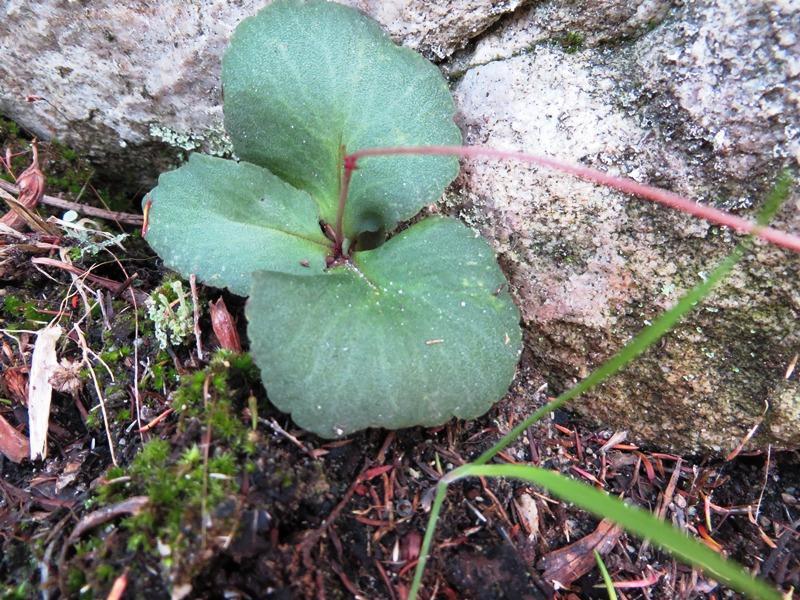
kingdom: Plantae
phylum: Tracheophyta
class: Magnoliopsida
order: Saxifragales
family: Crassulaceae
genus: Crassula
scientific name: Crassula capensis
